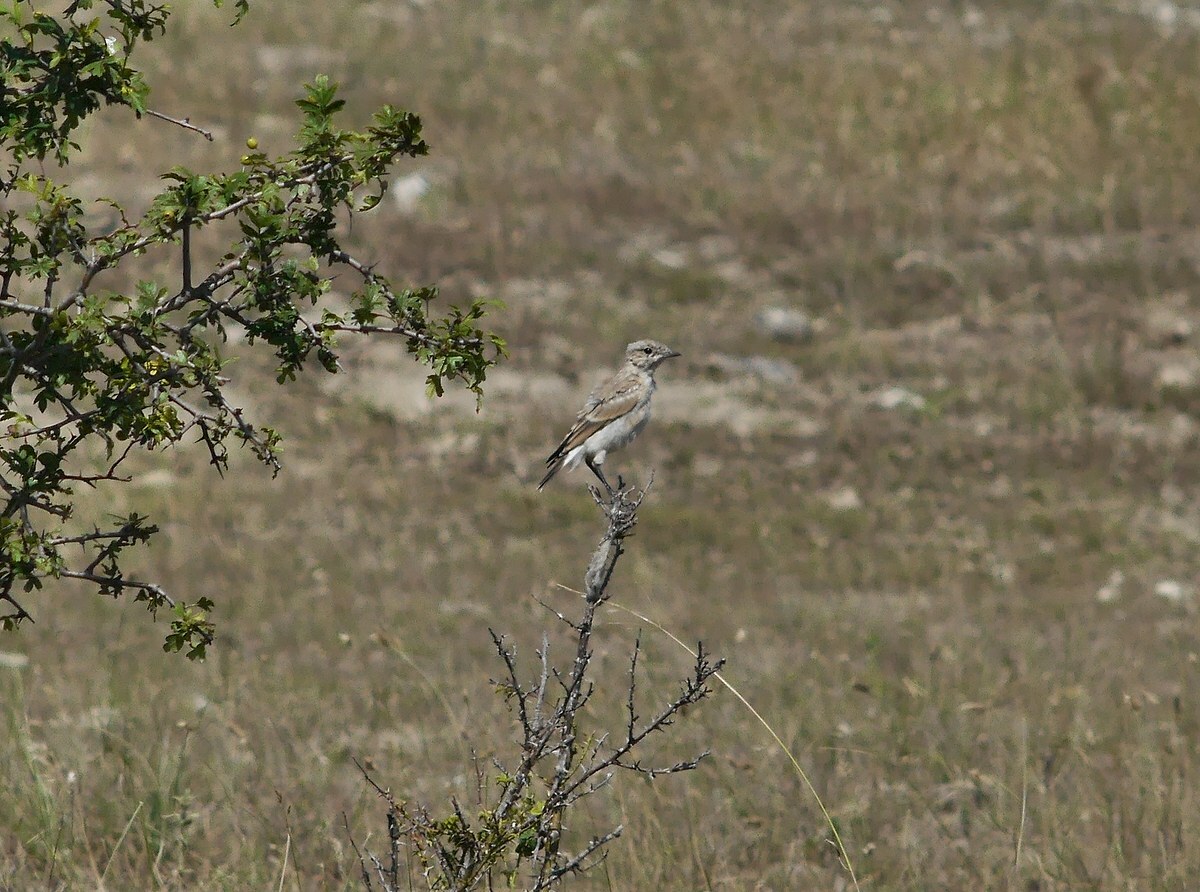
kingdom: Animalia
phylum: Chordata
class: Aves
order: Passeriformes
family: Muscicapidae
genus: Oenanthe
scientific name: Oenanthe oenanthe
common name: Northern wheatear
